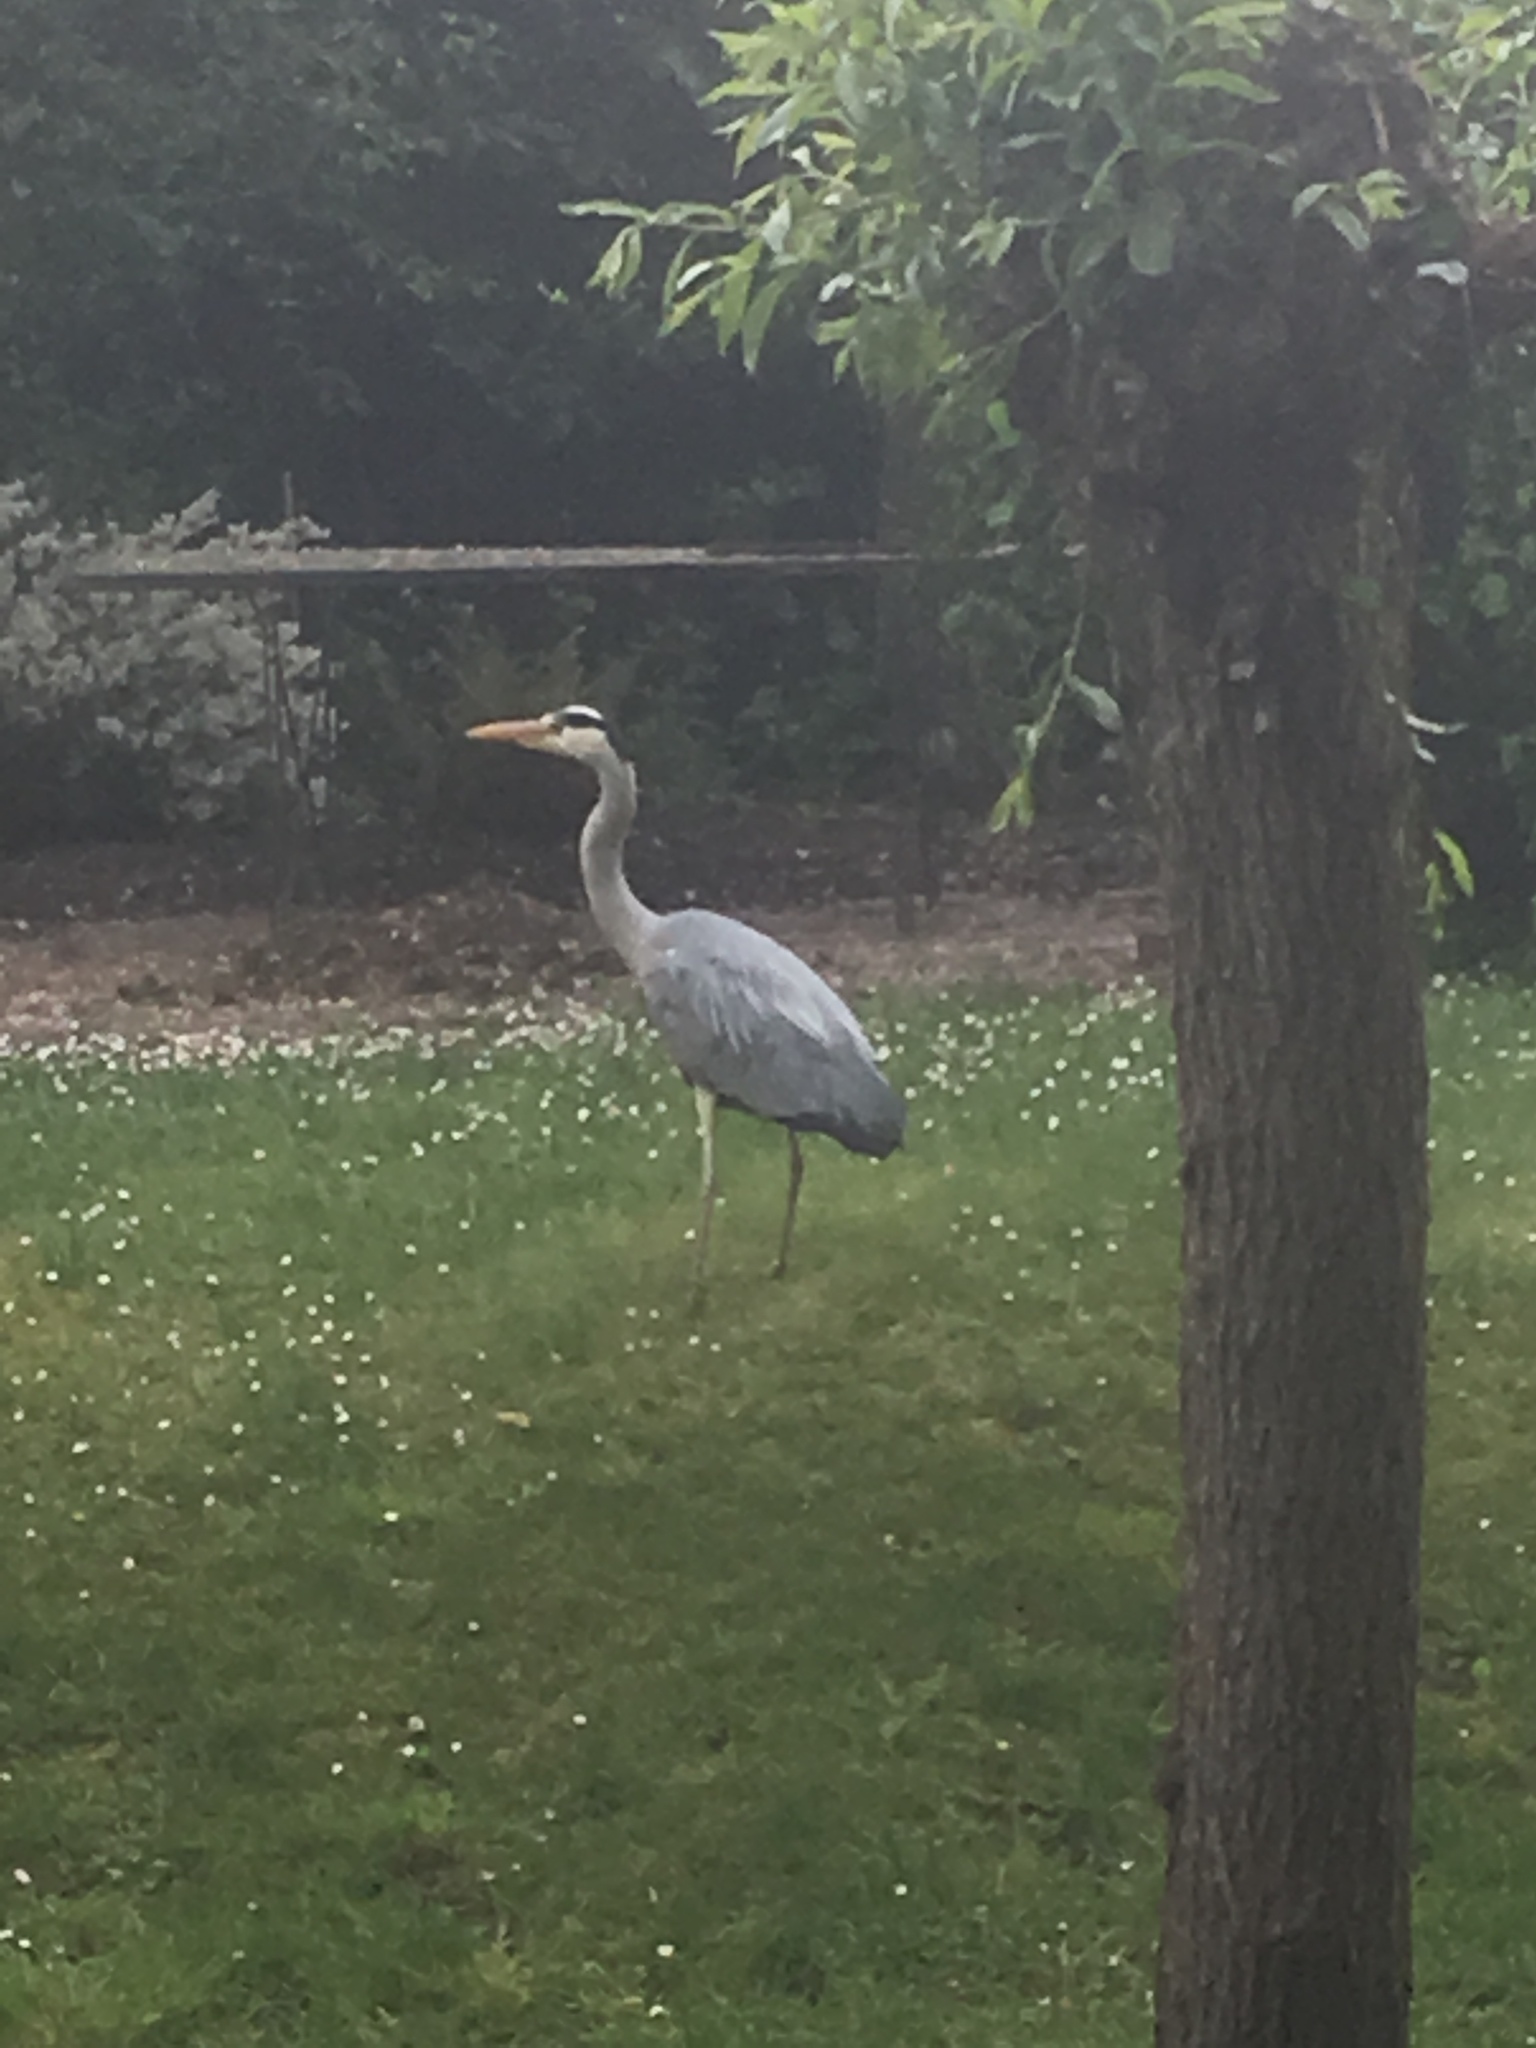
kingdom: Animalia
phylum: Chordata
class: Aves
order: Pelecaniformes
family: Ardeidae
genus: Ardea
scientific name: Ardea cinerea
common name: Grey heron
